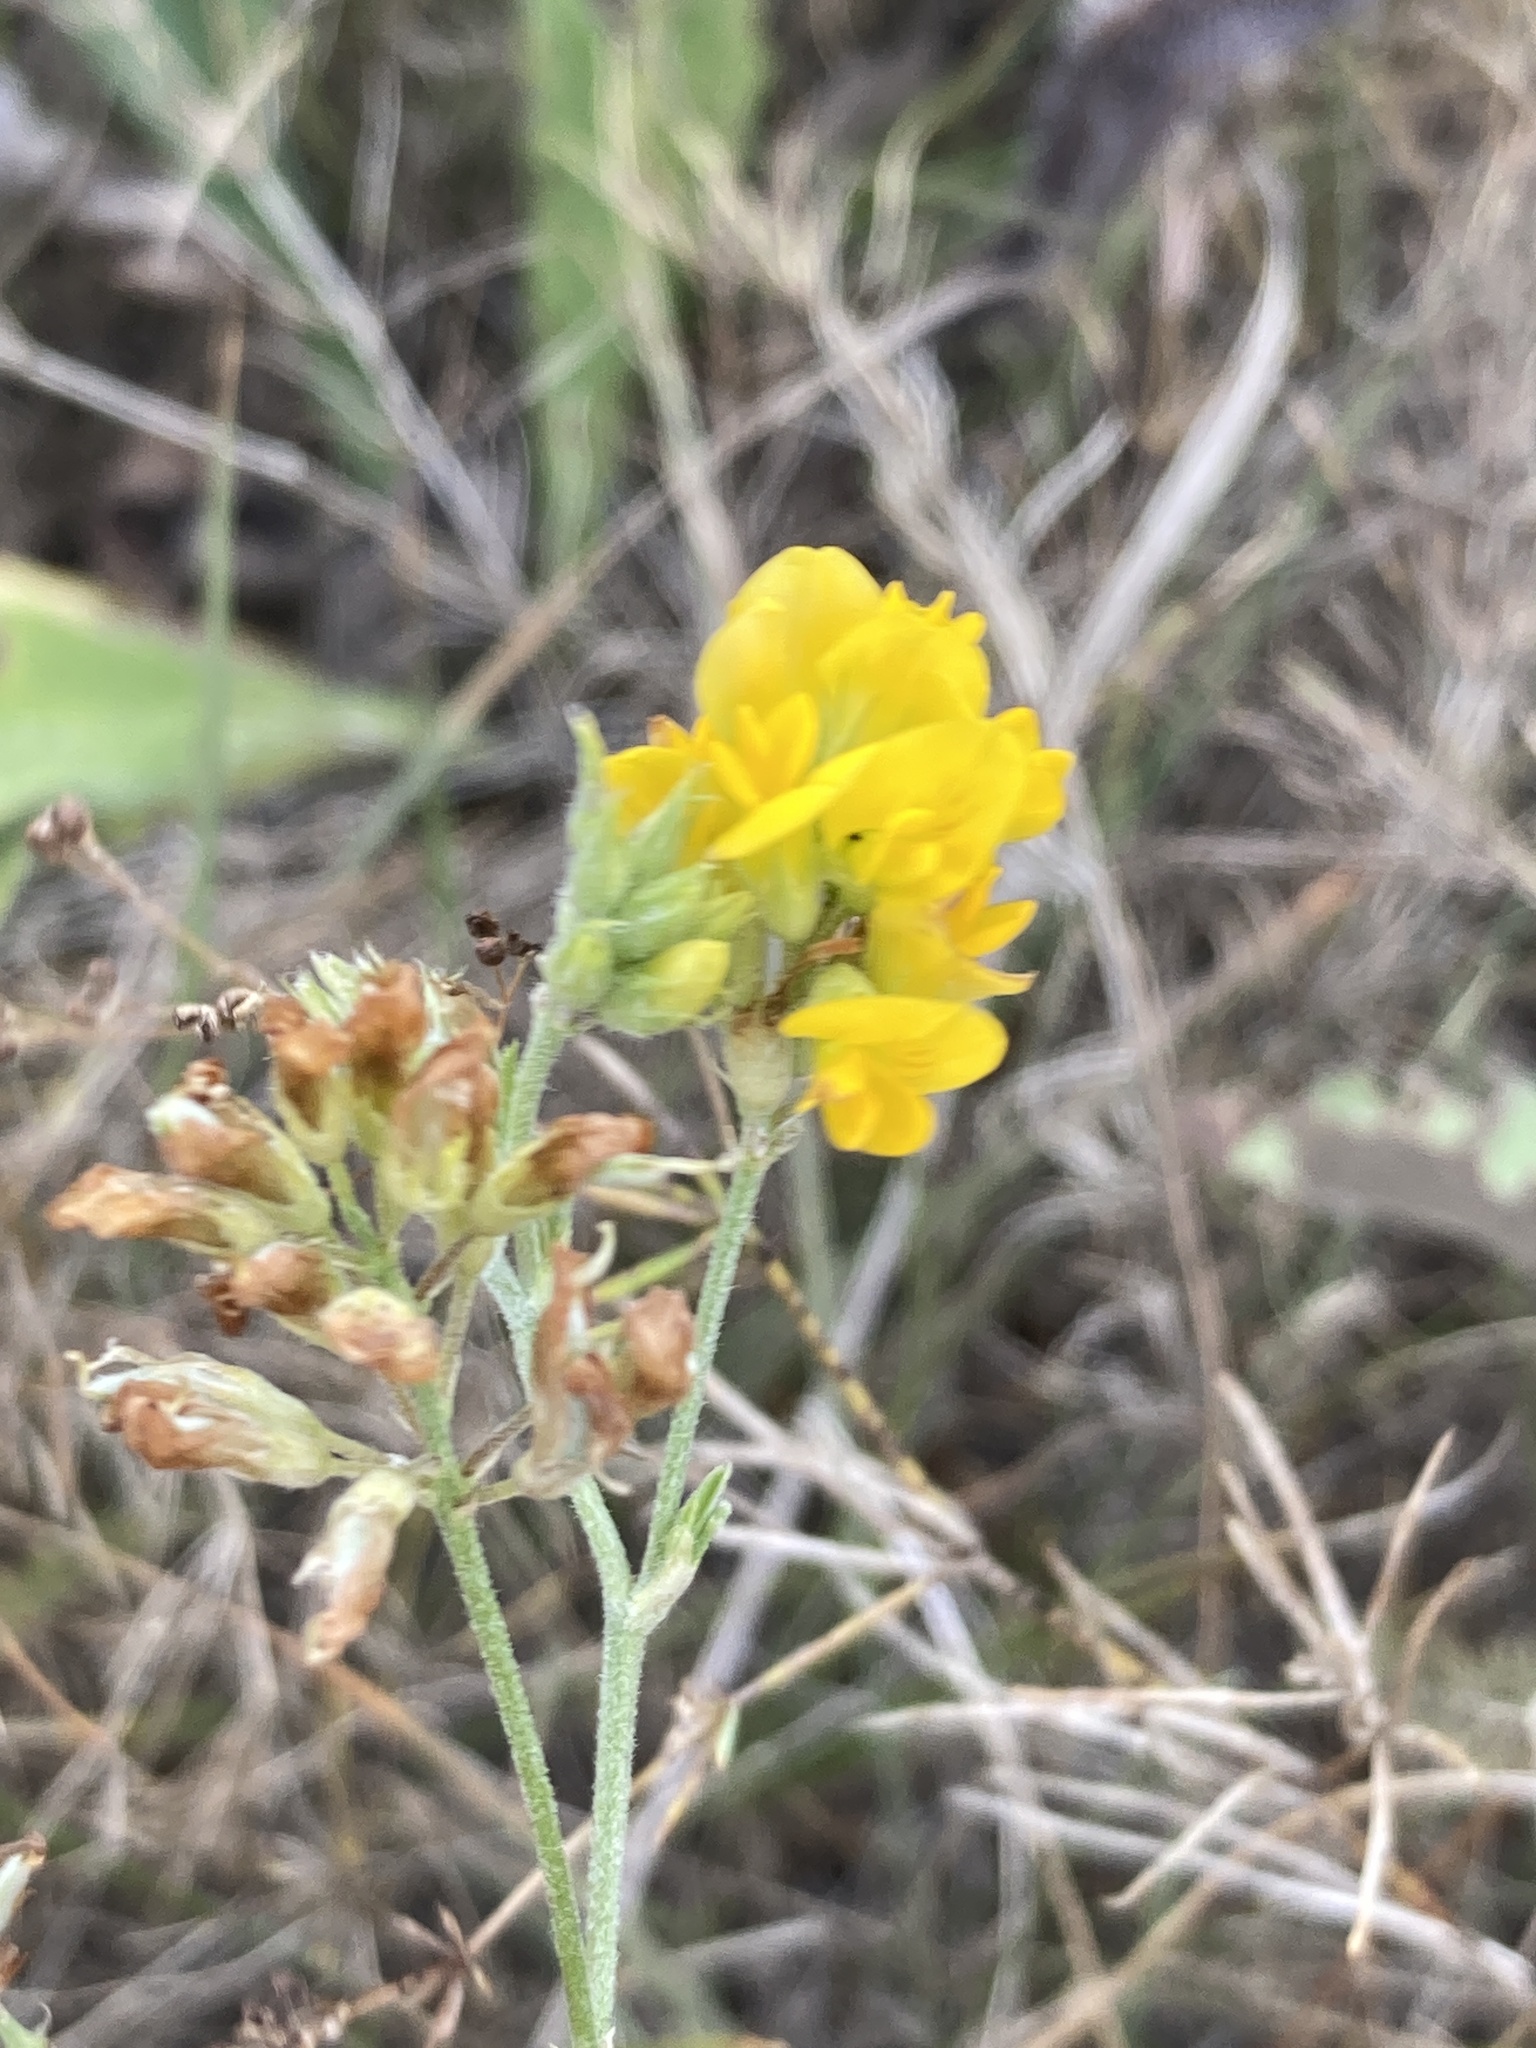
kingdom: Plantae
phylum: Tracheophyta
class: Magnoliopsida
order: Fabales
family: Fabaceae
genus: Medicago
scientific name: Medicago falcata
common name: Sickle medick
